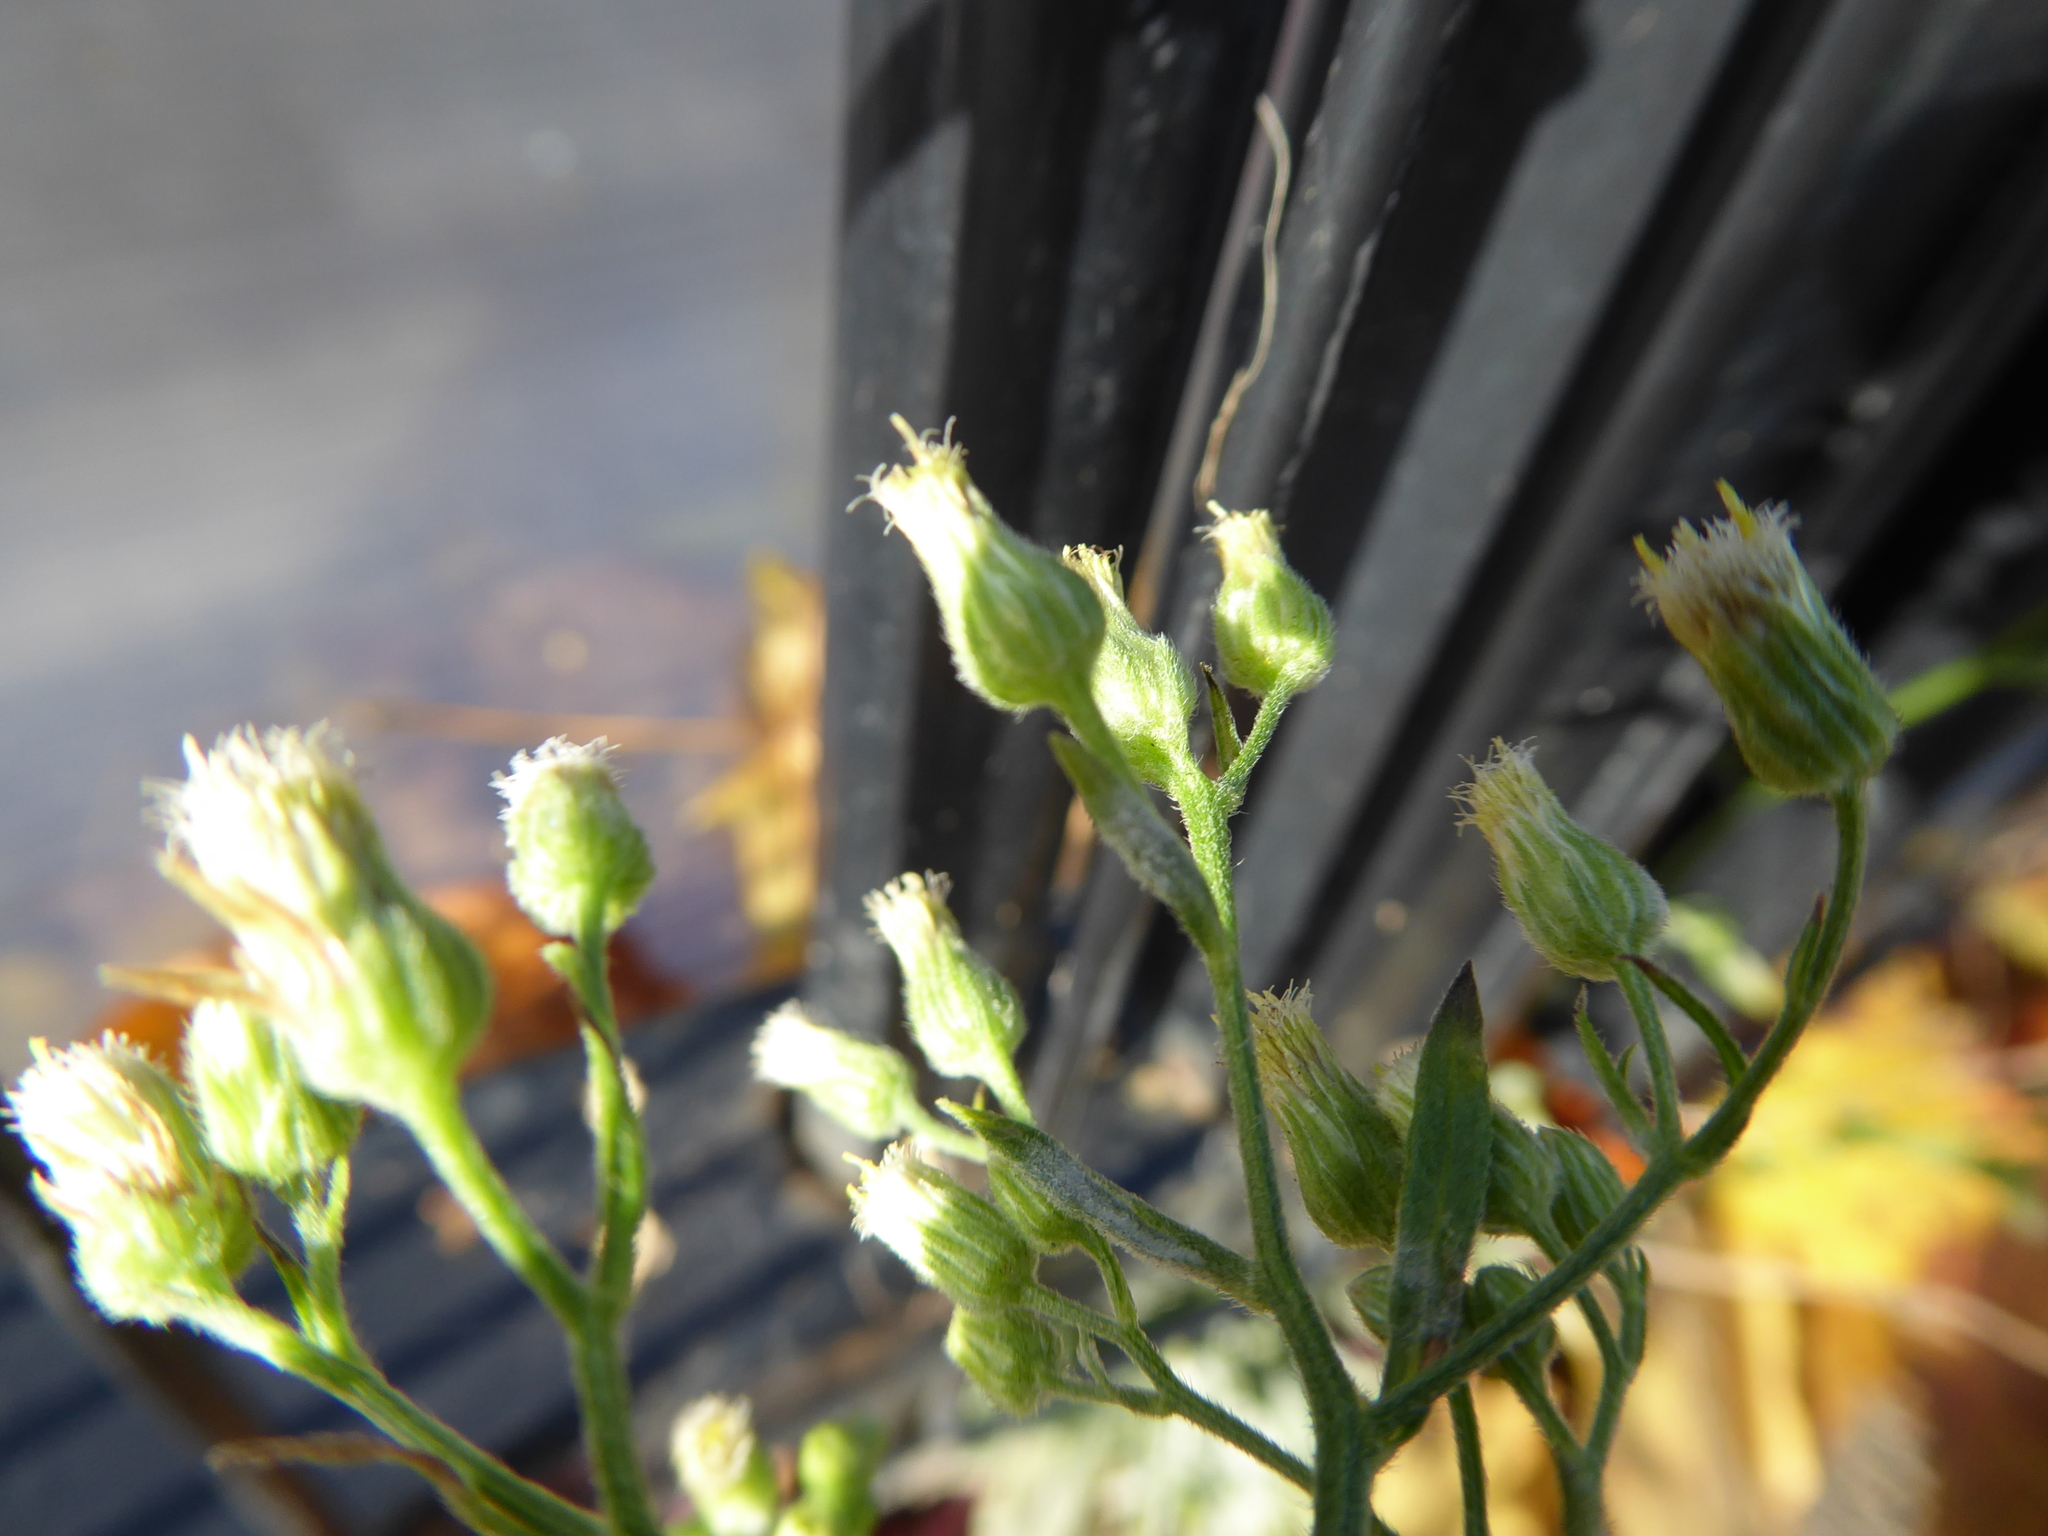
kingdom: Plantae
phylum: Tracheophyta
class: Magnoliopsida
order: Asterales
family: Asteraceae
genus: Erigeron
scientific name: Erigeron sumatrensis
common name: Daisy
